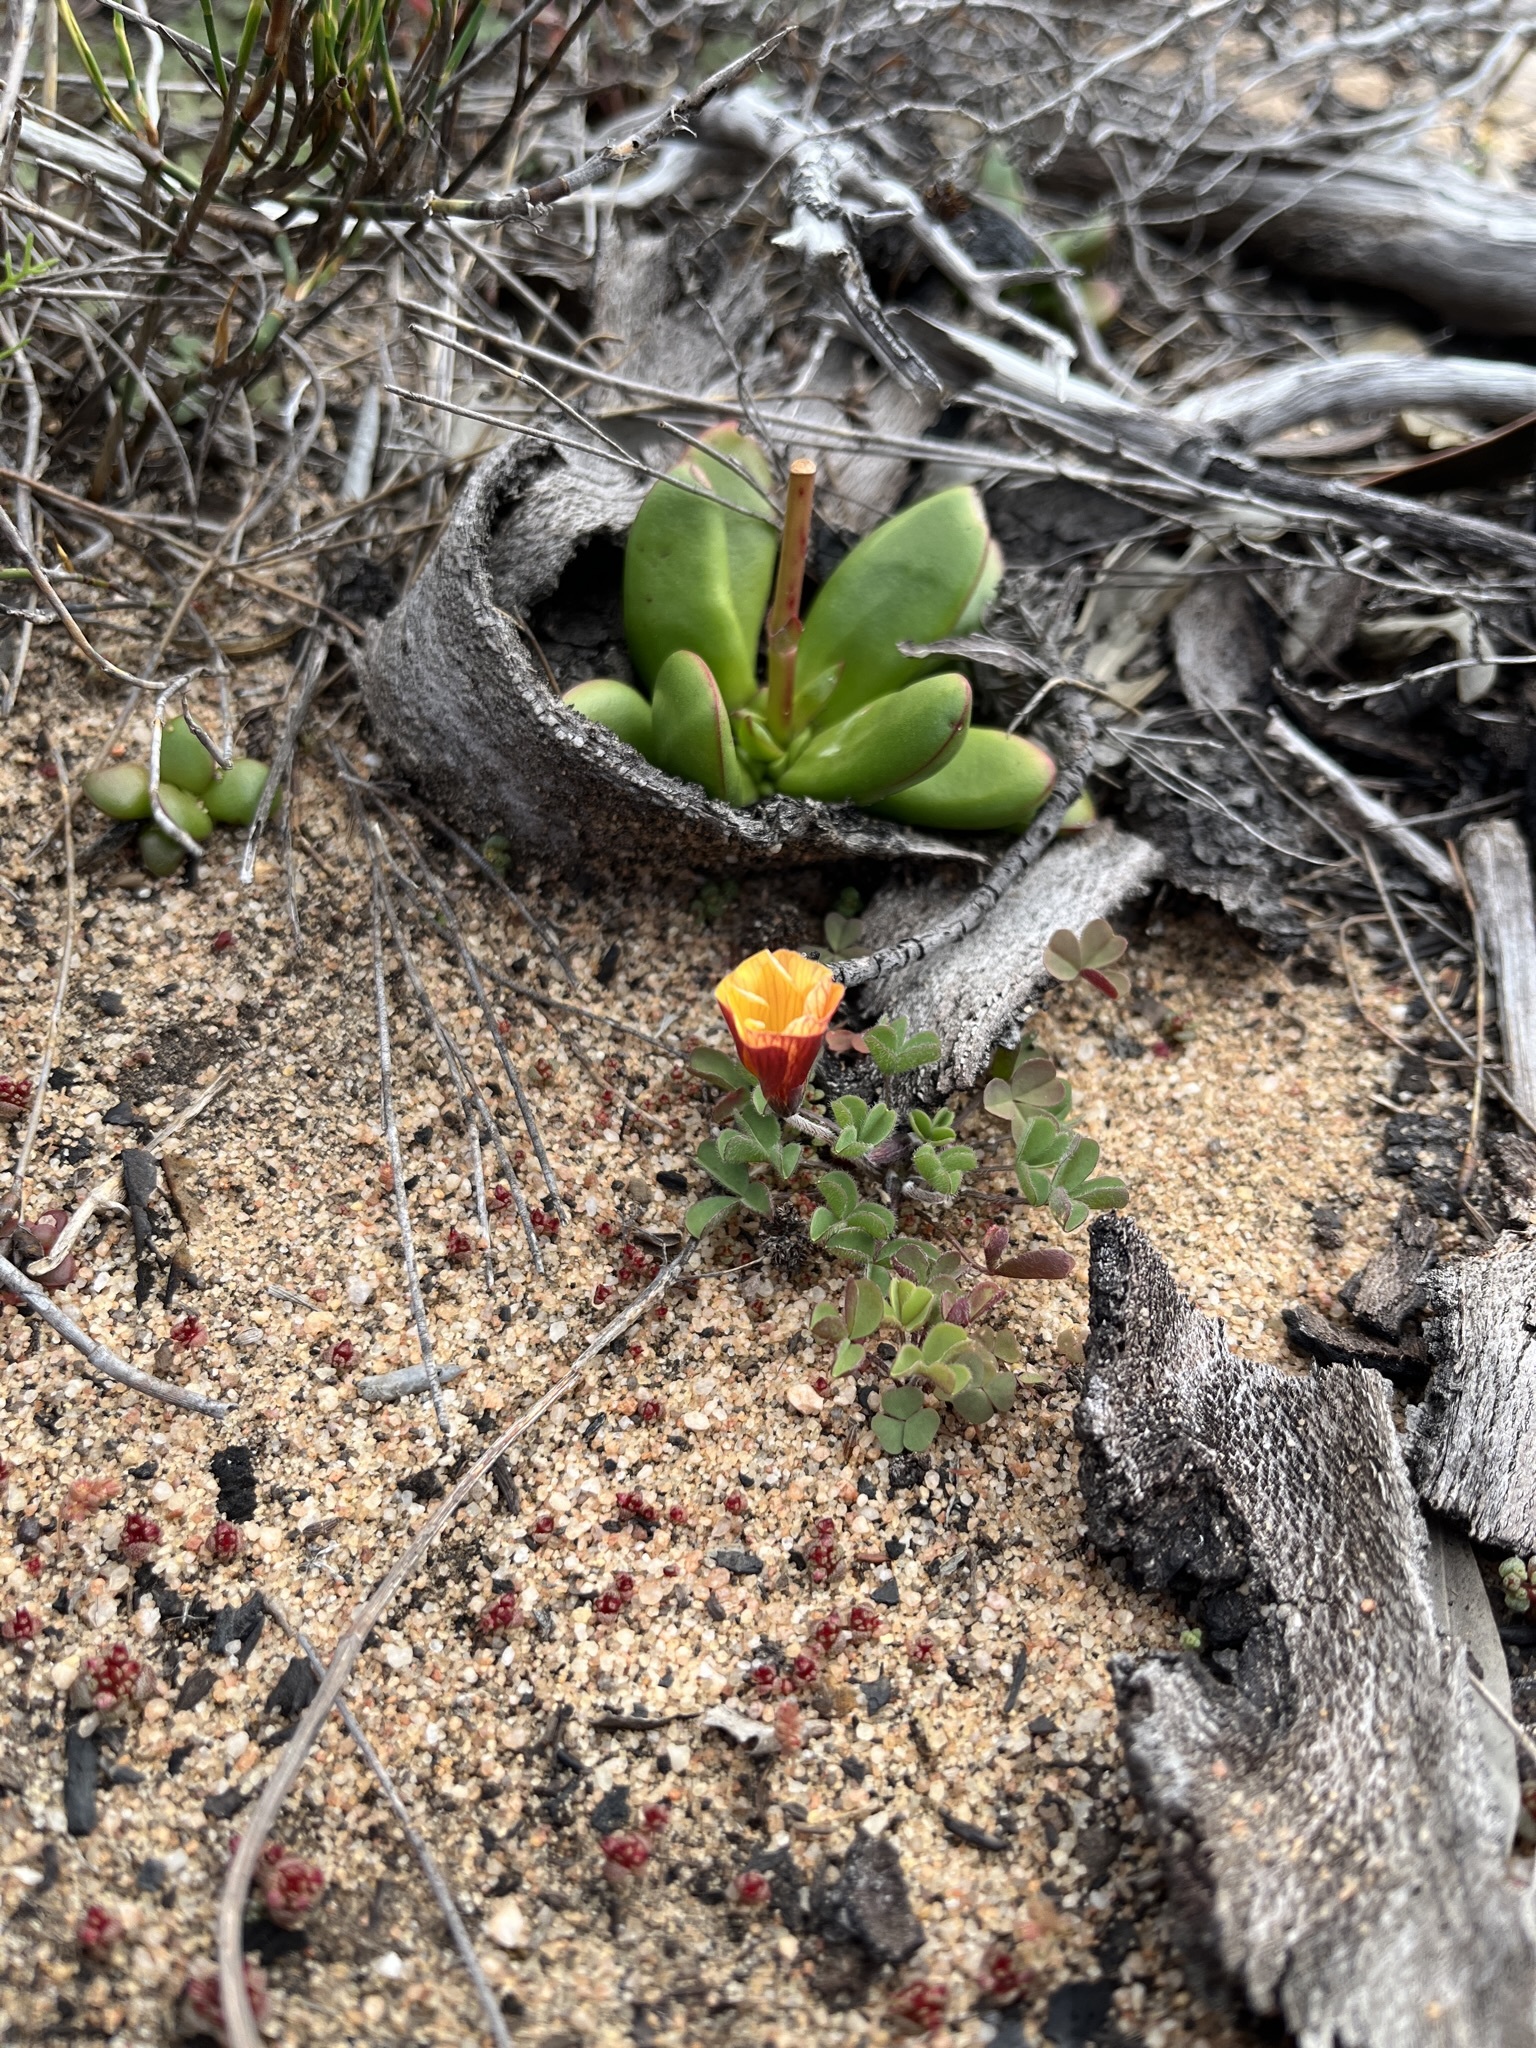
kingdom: Plantae
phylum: Tracheophyta
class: Magnoliopsida
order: Oxalidales
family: Oxalidaceae
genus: Oxalis
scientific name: Oxalis obtusa
